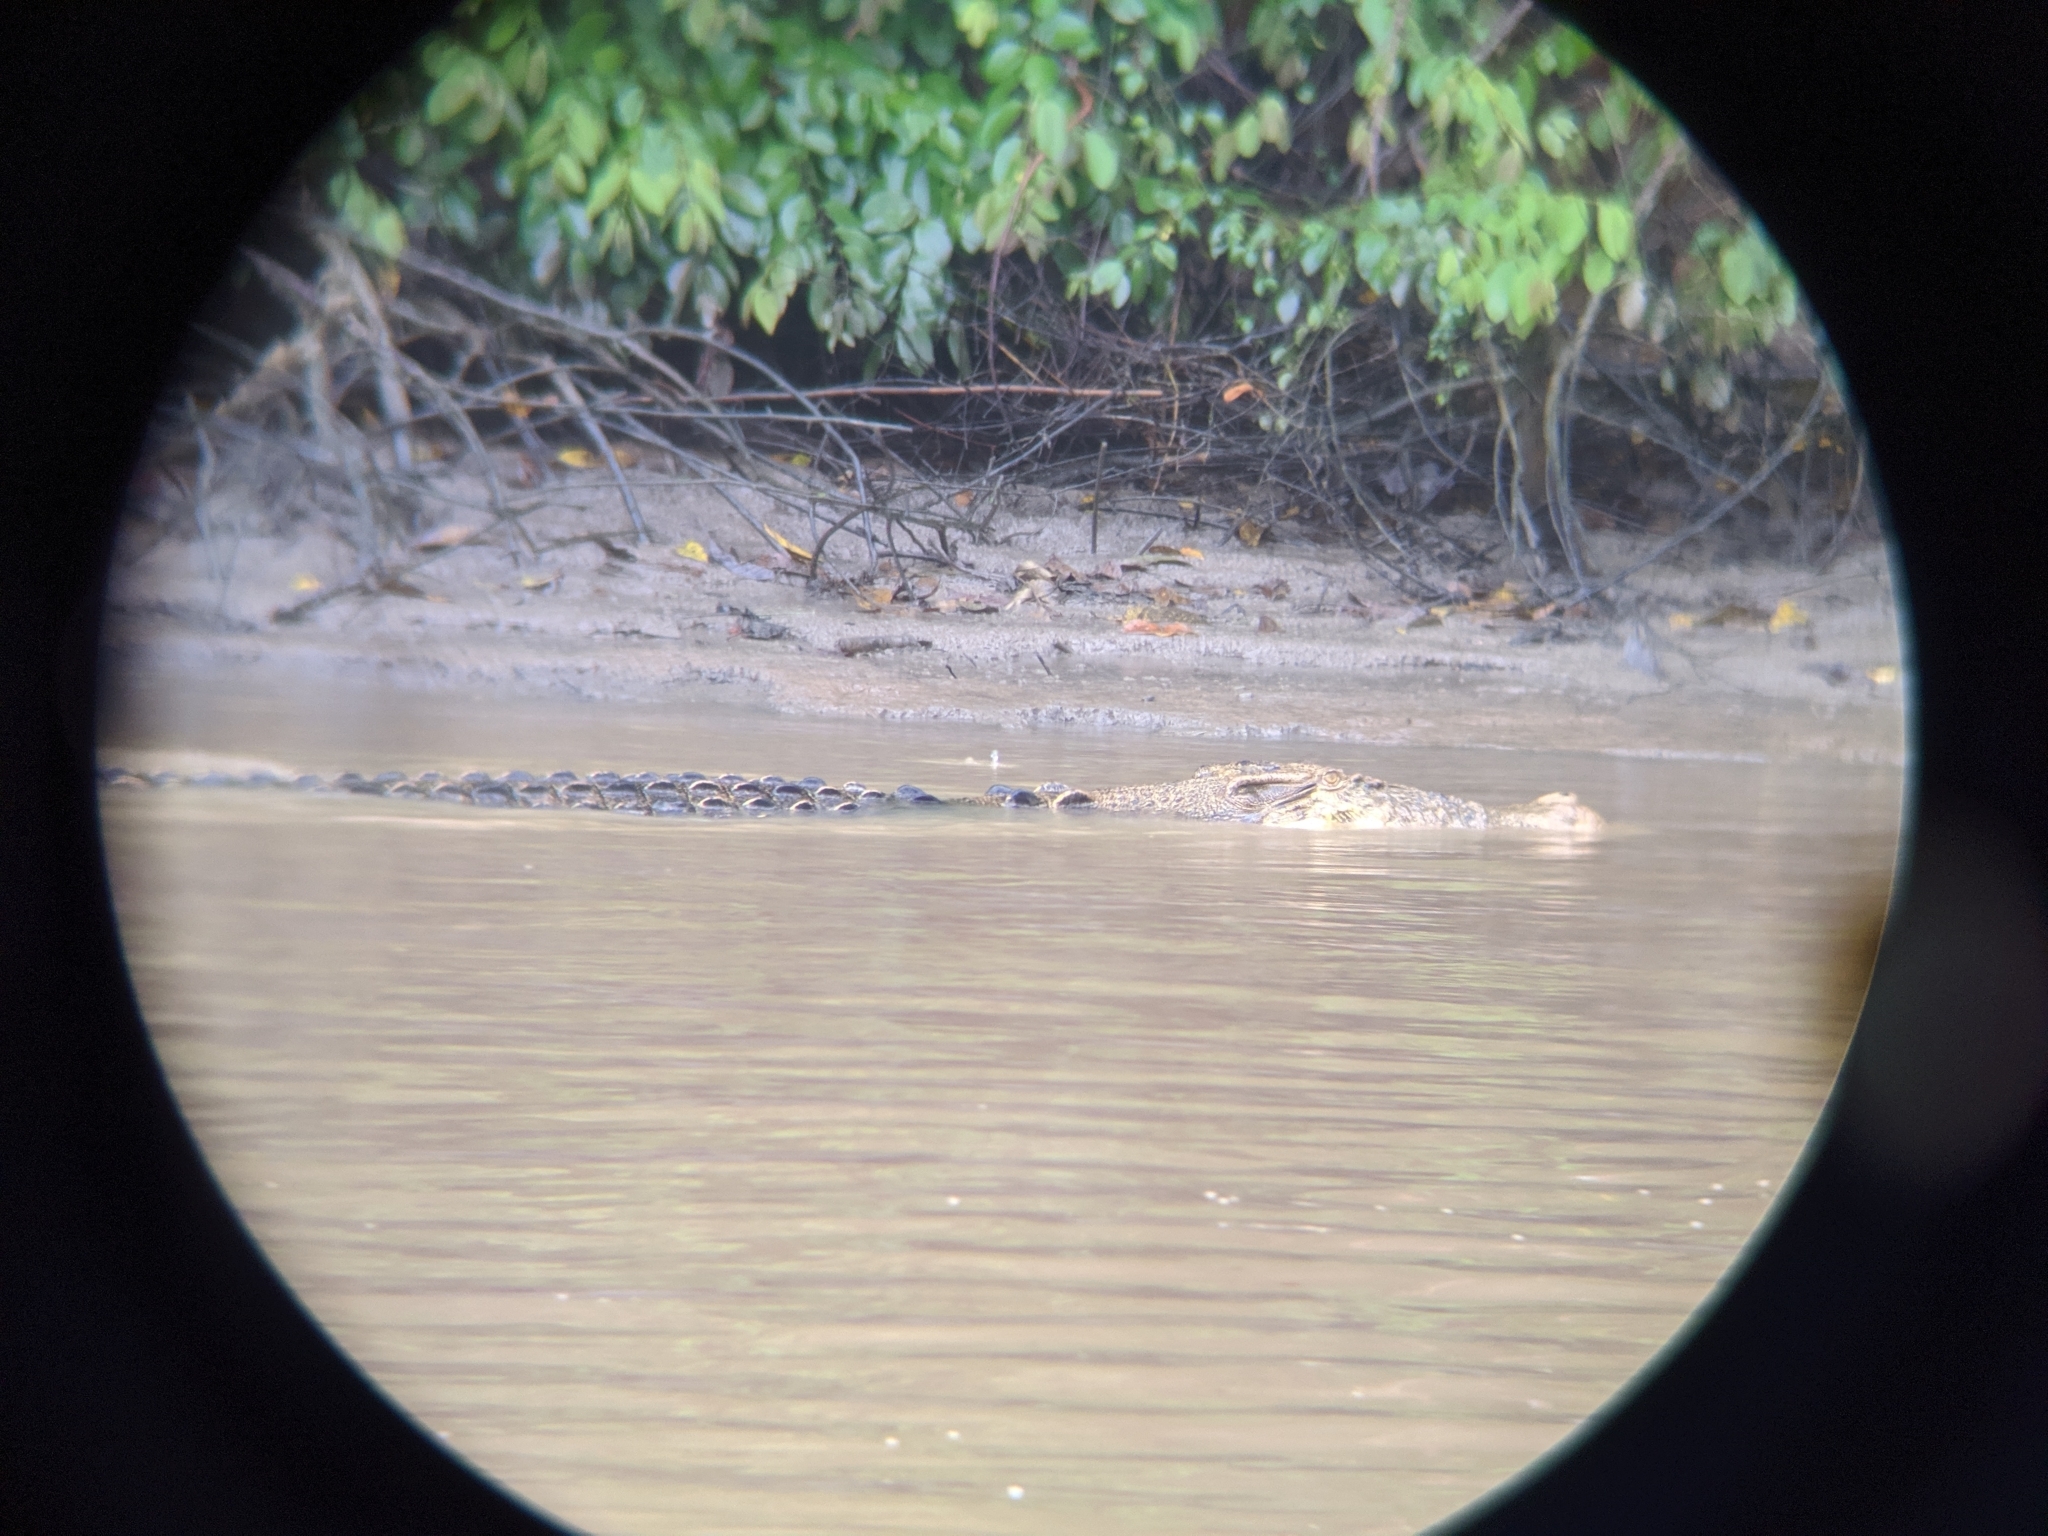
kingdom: Animalia
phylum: Chordata
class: Crocodylia
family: Crocodylidae
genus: Crocodylus
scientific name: Crocodylus porosus
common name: Saltwater crocodile
